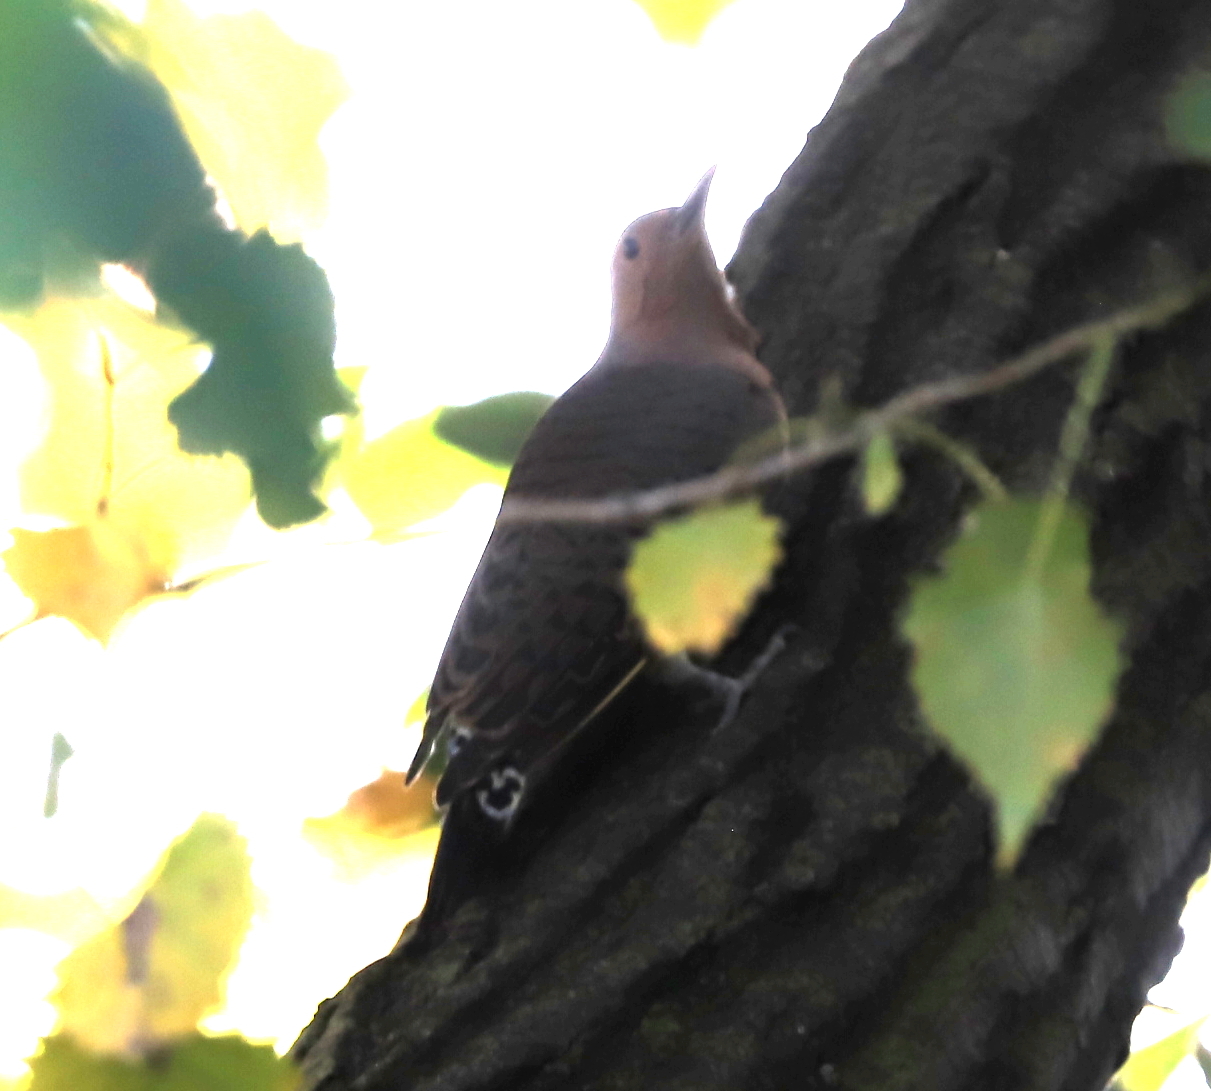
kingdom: Animalia
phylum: Chordata
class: Aves
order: Piciformes
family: Picidae
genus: Colaptes
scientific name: Colaptes auratus
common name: Northern flicker
